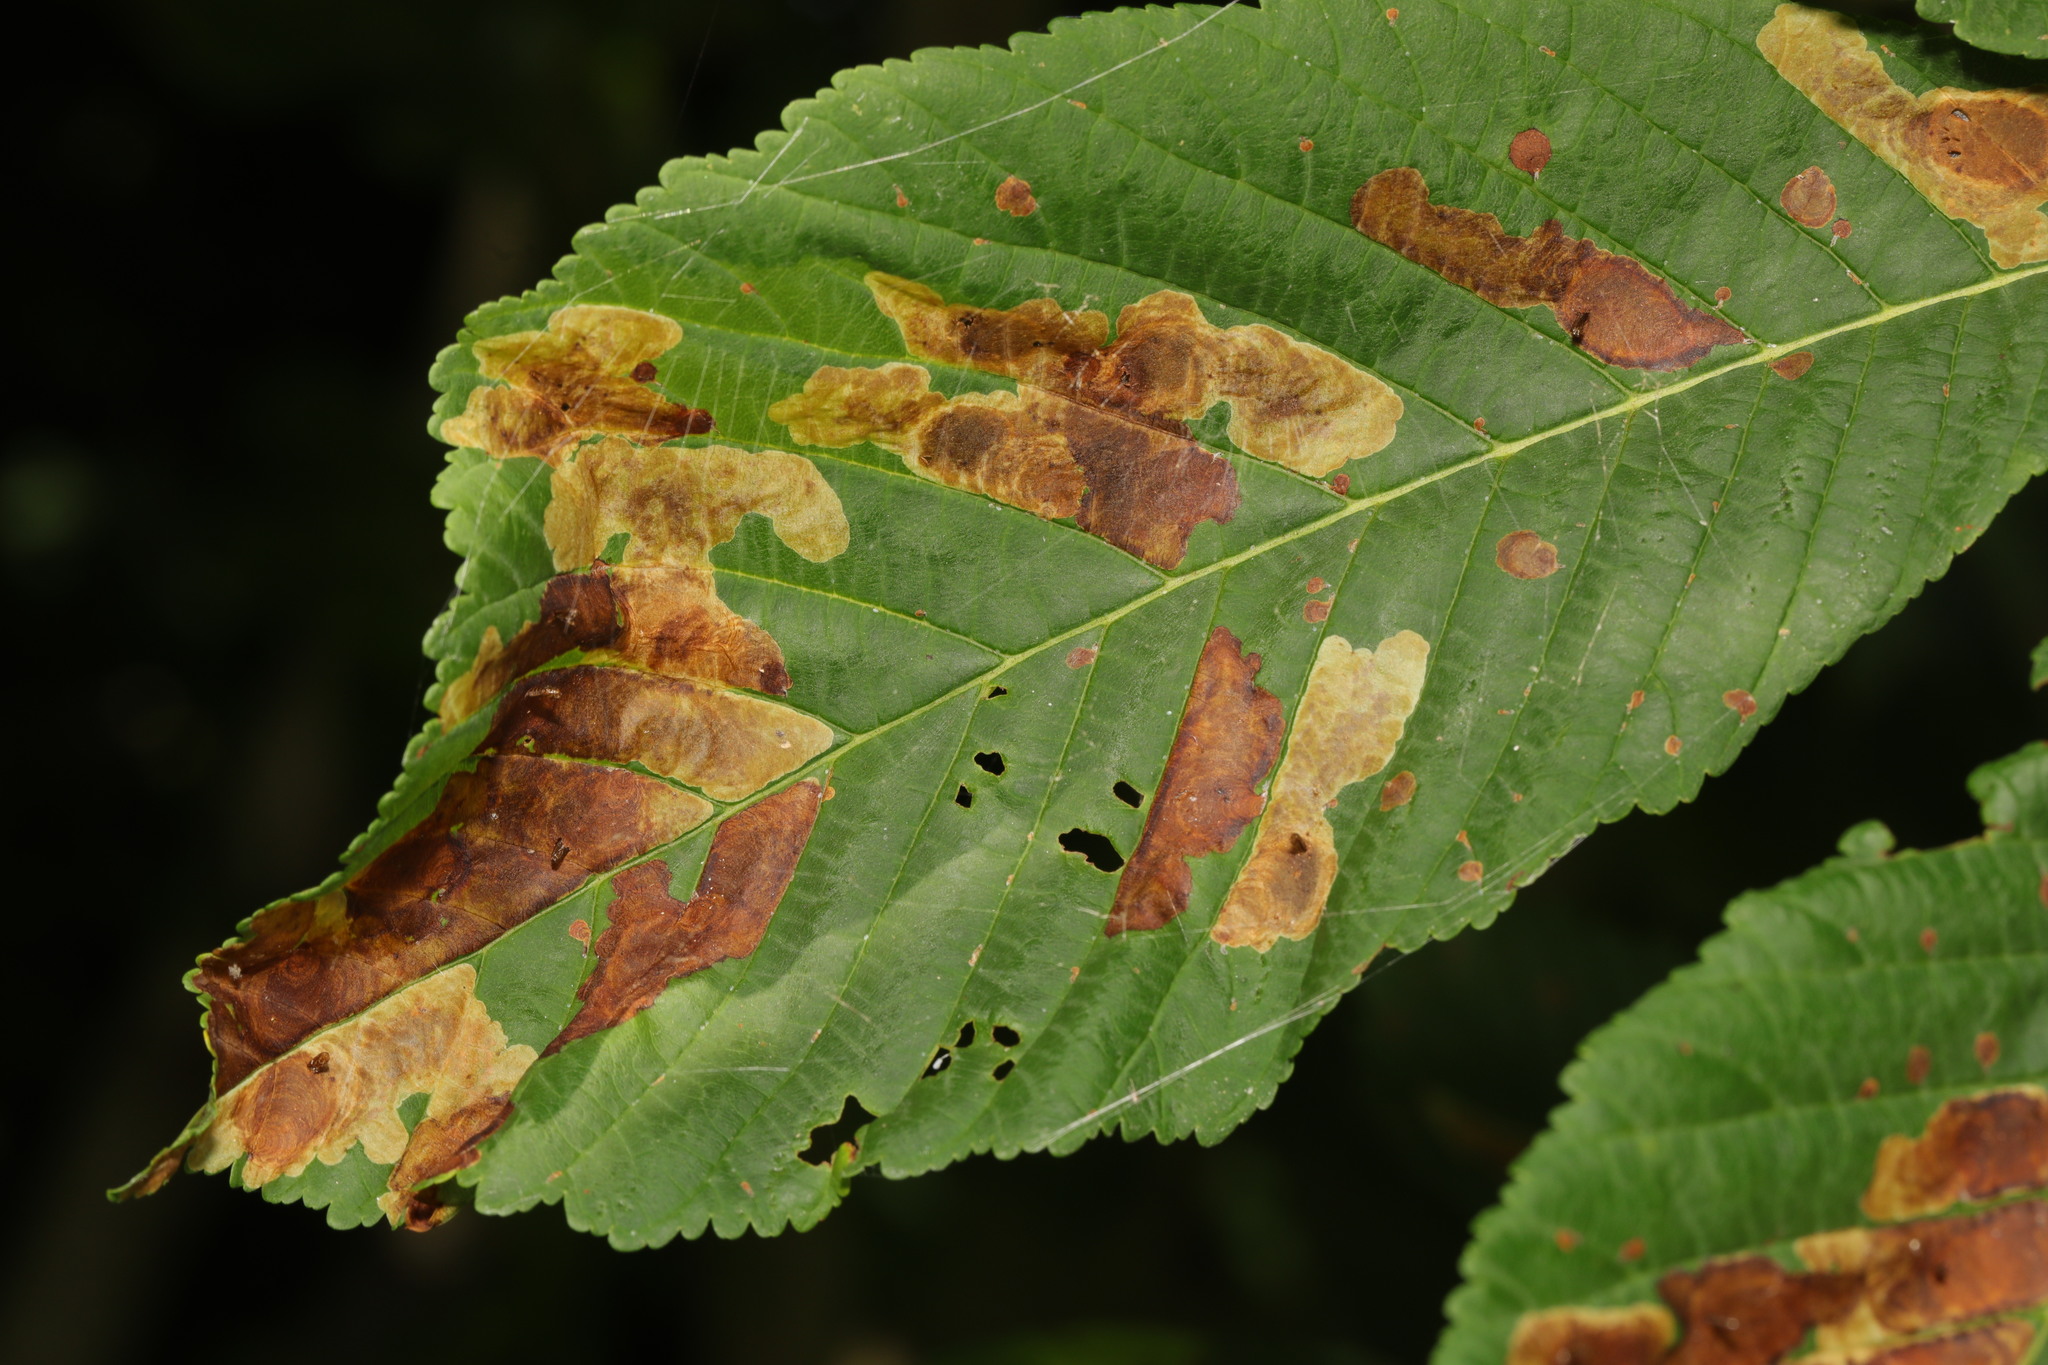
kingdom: Animalia
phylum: Arthropoda
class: Insecta
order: Lepidoptera
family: Gracillariidae
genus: Cameraria
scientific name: Cameraria ohridella
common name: Horse-chestnut leaf-miner
